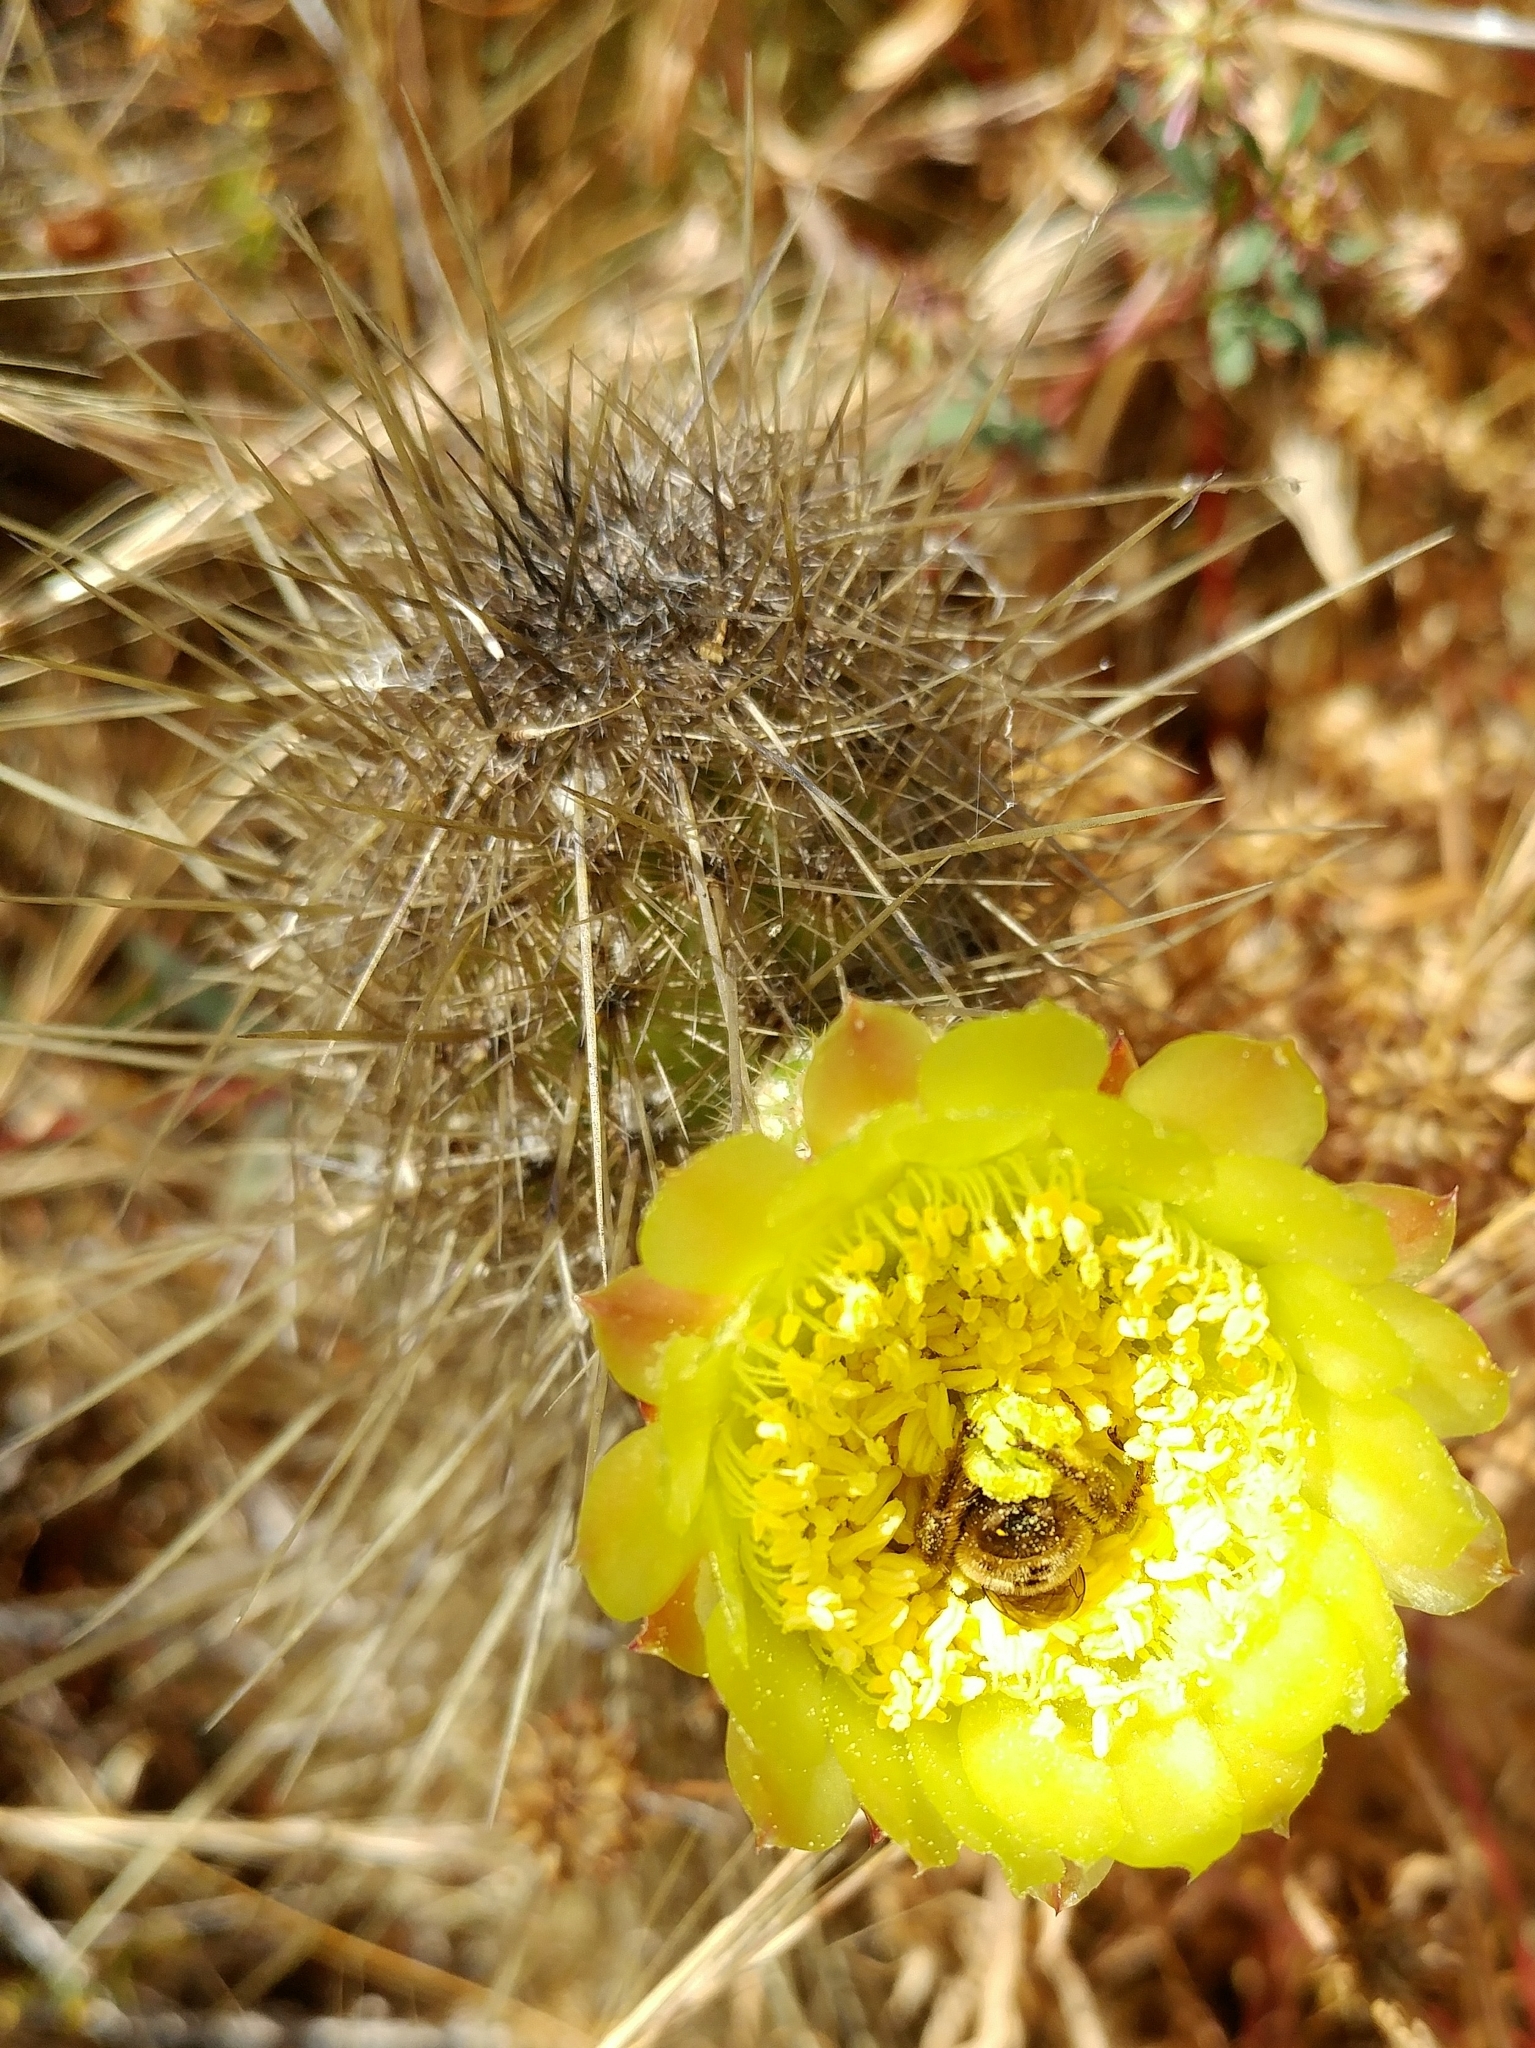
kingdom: Plantae
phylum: Tracheophyta
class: Magnoliopsida
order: Caryophyllales
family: Cactaceae
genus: Bergerocactus
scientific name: Bergerocactus emoryi
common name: Golden snakecactus
